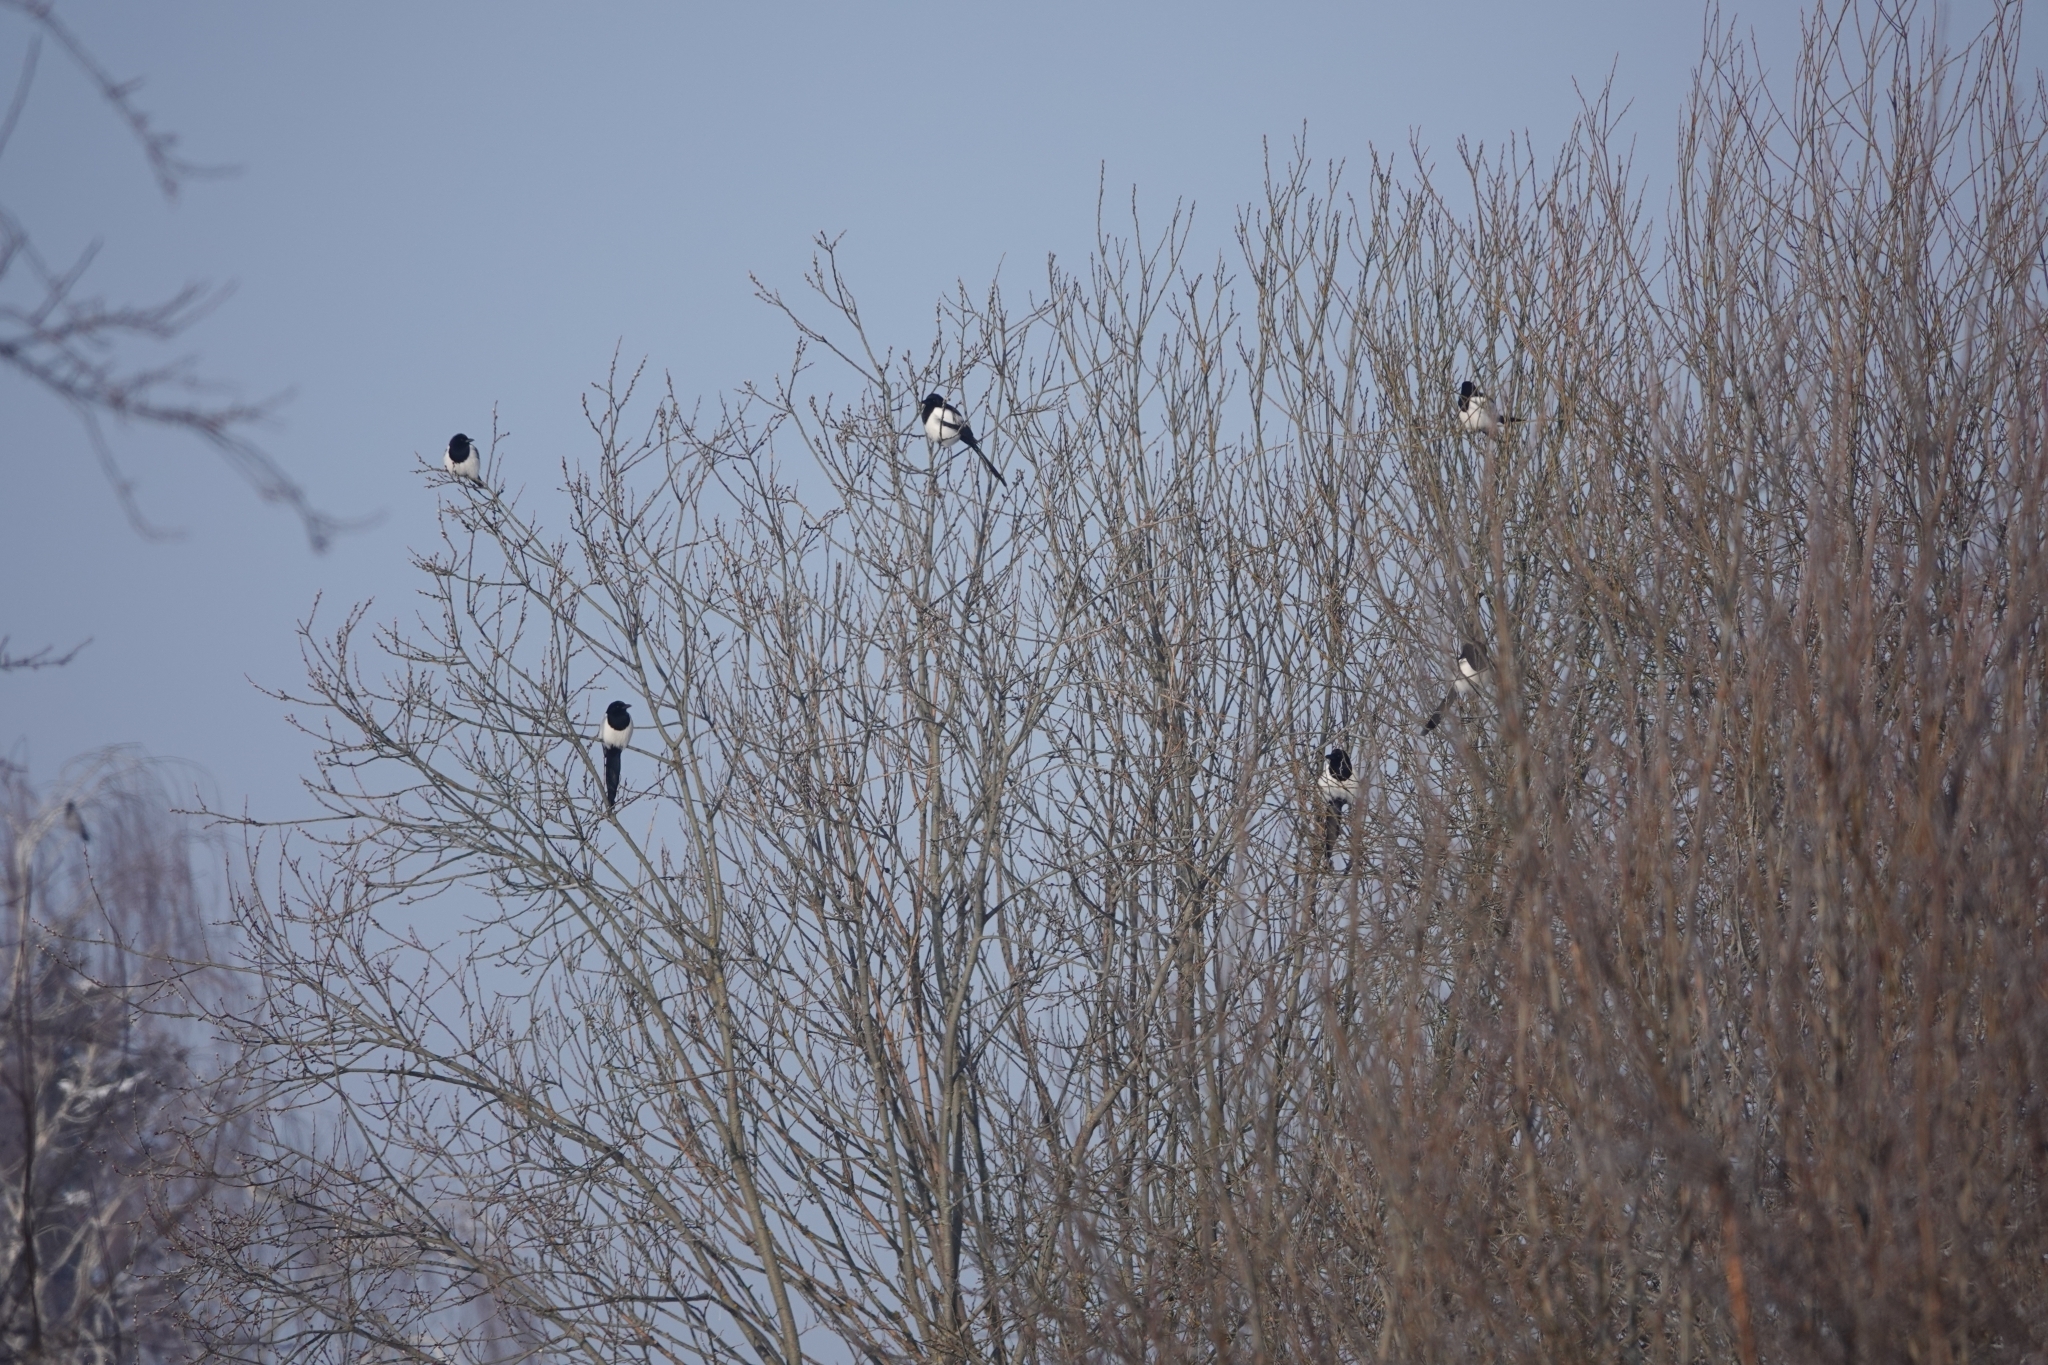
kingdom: Animalia
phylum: Chordata
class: Aves
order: Passeriformes
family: Corvidae
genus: Pica
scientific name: Pica pica
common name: Eurasian magpie
